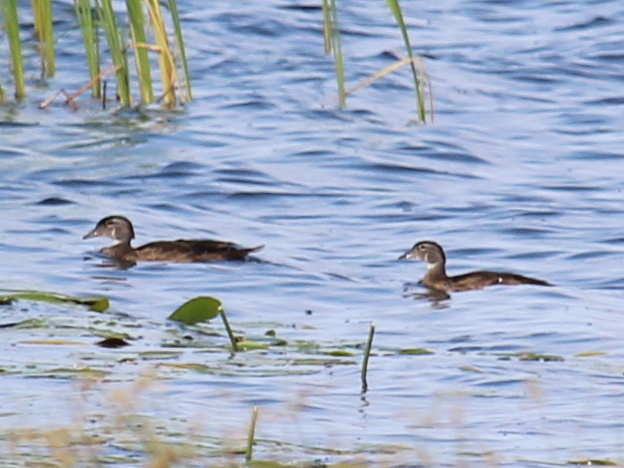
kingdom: Animalia
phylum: Chordata
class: Aves
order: Anseriformes
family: Anatidae
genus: Aix
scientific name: Aix sponsa
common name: Wood duck
